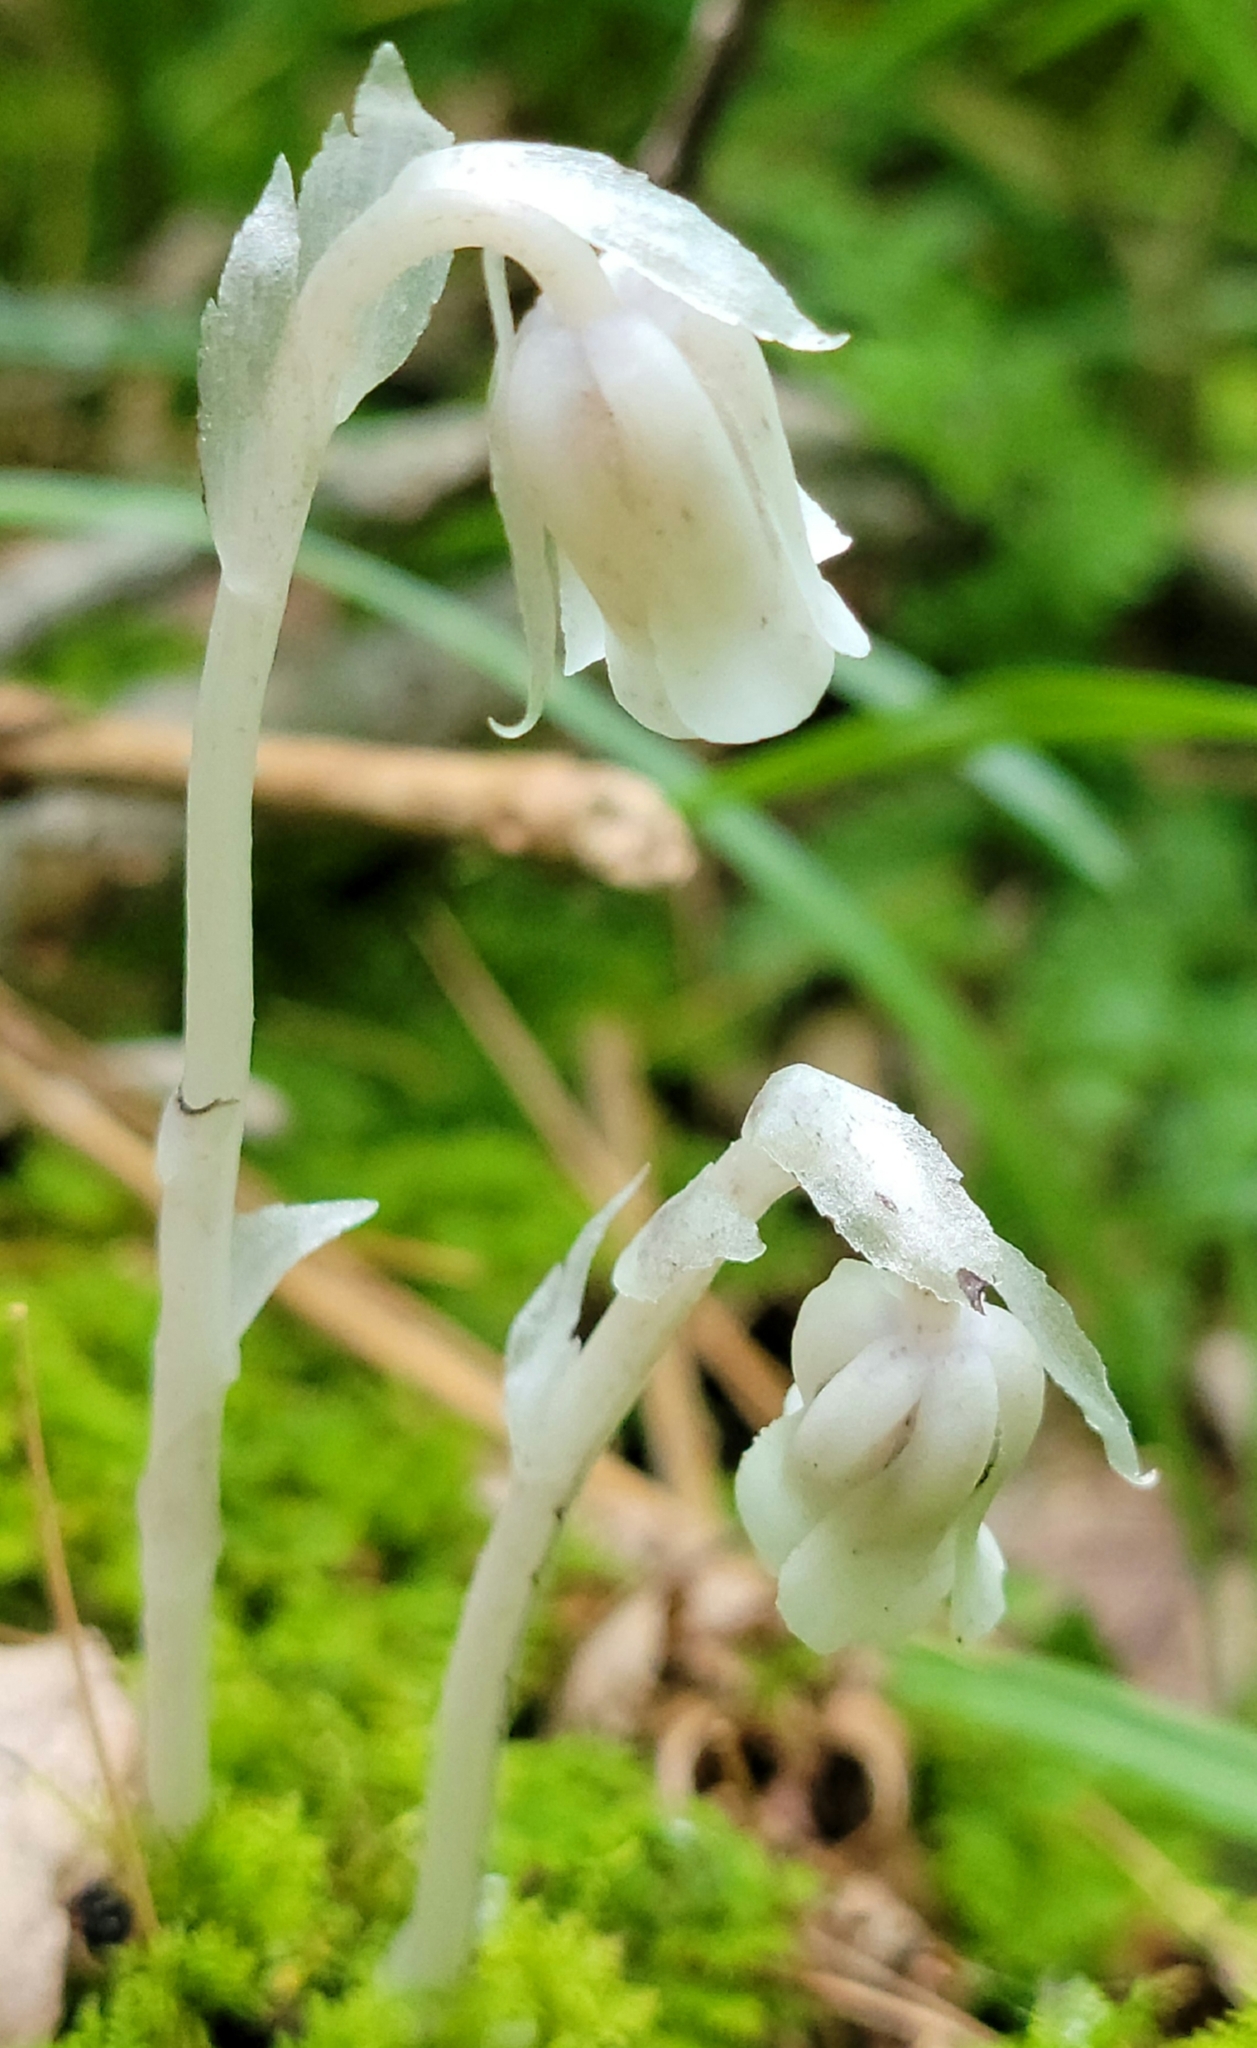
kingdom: Plantae
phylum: Tracheophyta
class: Magnoliopsida
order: Ericales
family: Ericaceae
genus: Monotropa
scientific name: Monotropa uniflora
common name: Convulsion root
